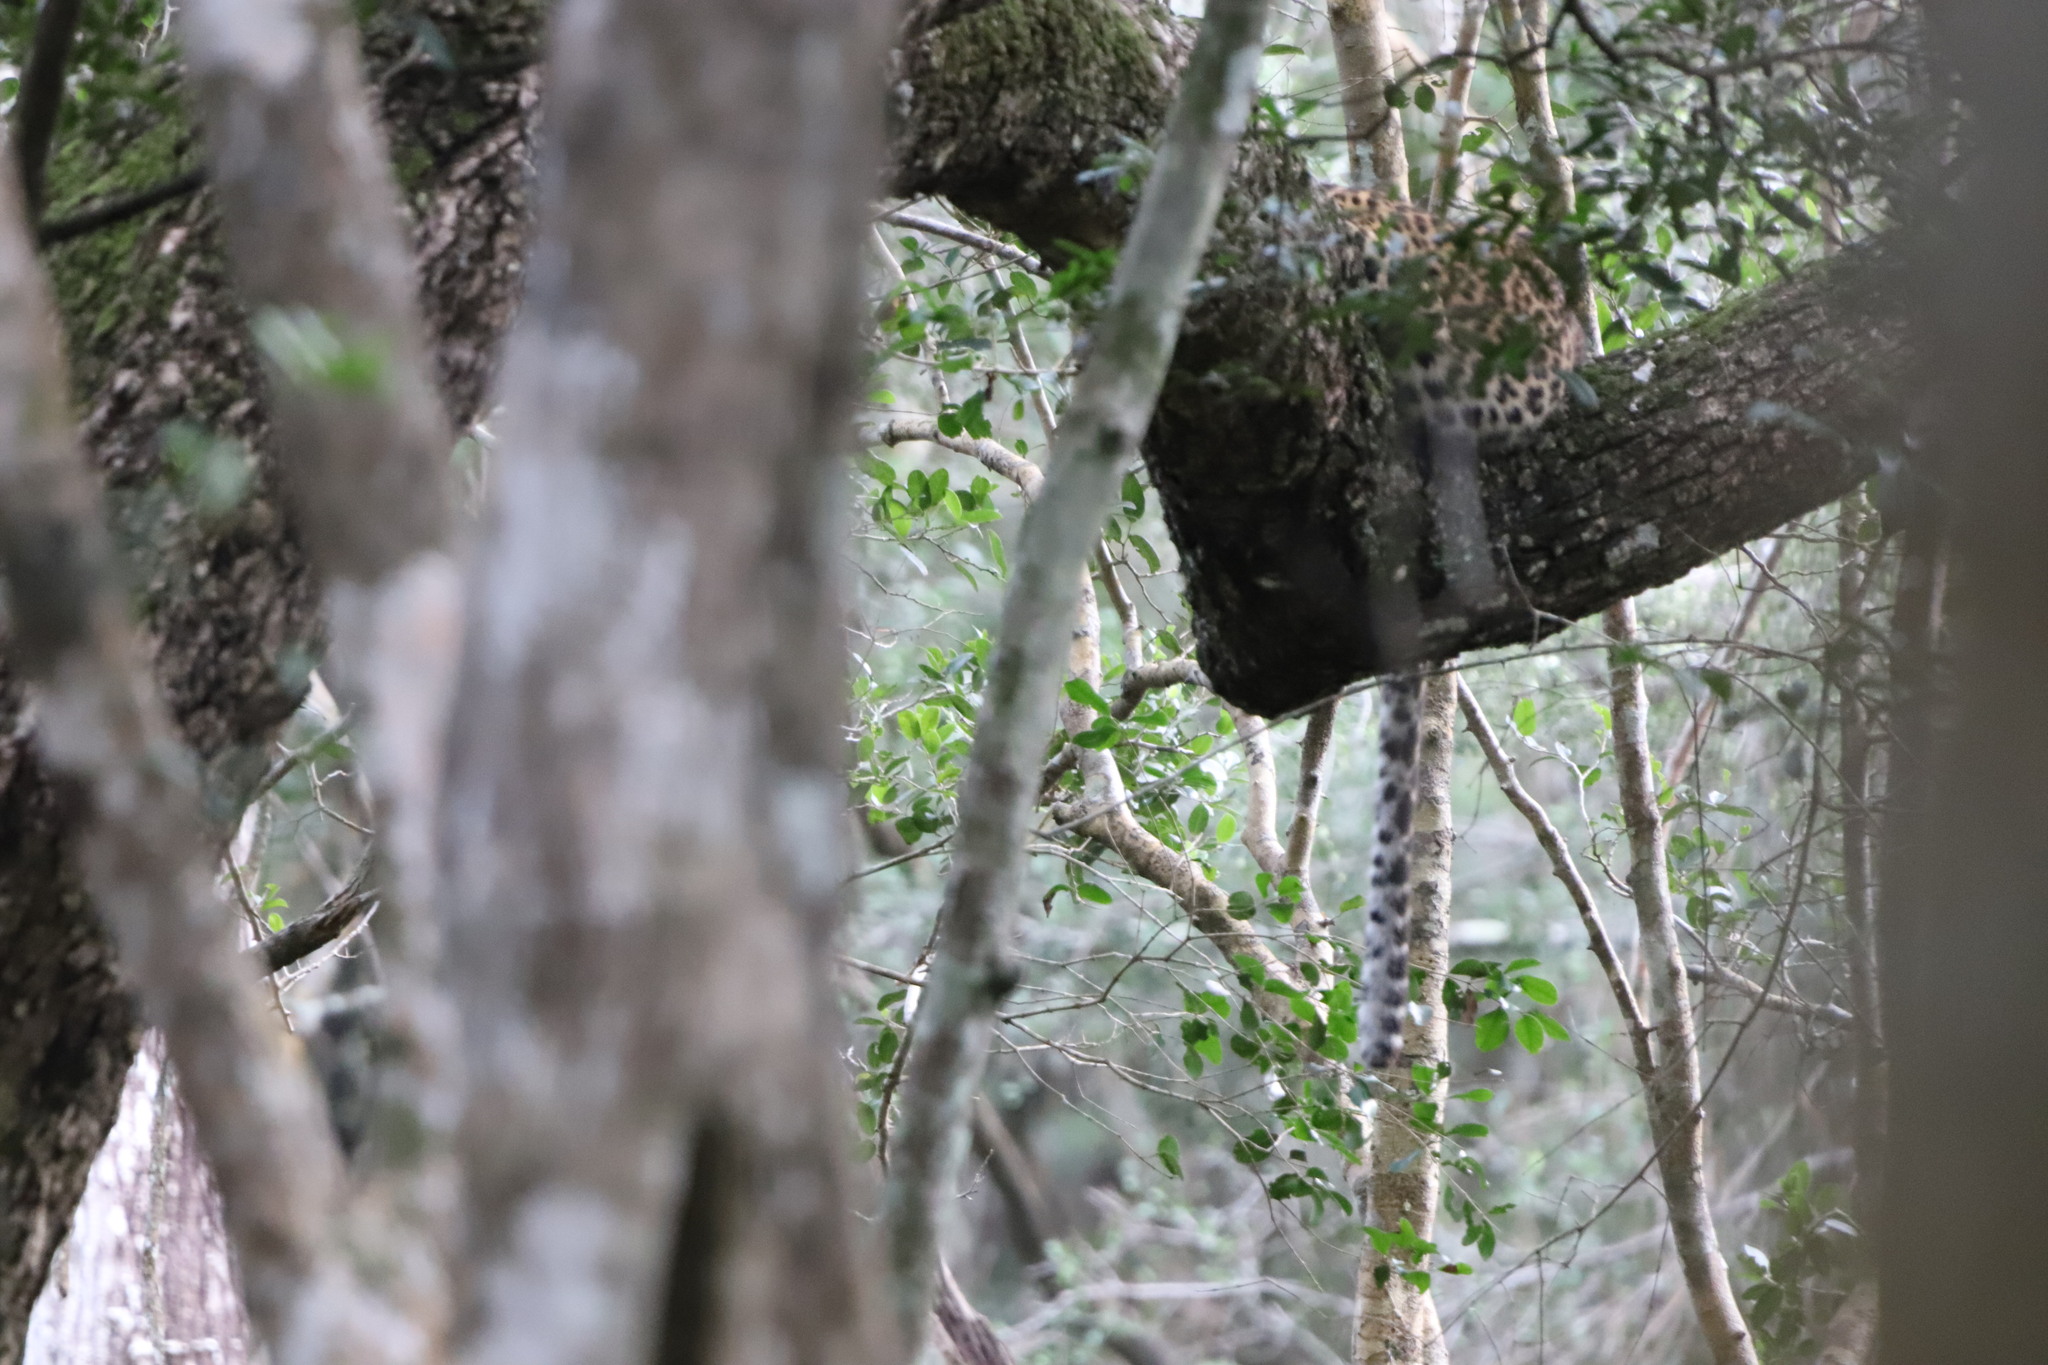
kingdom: Animalia
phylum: Chordata
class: Mammalia
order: Carnivora
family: Felidae
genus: Panthera
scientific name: Panthera pardus
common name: Leopard
